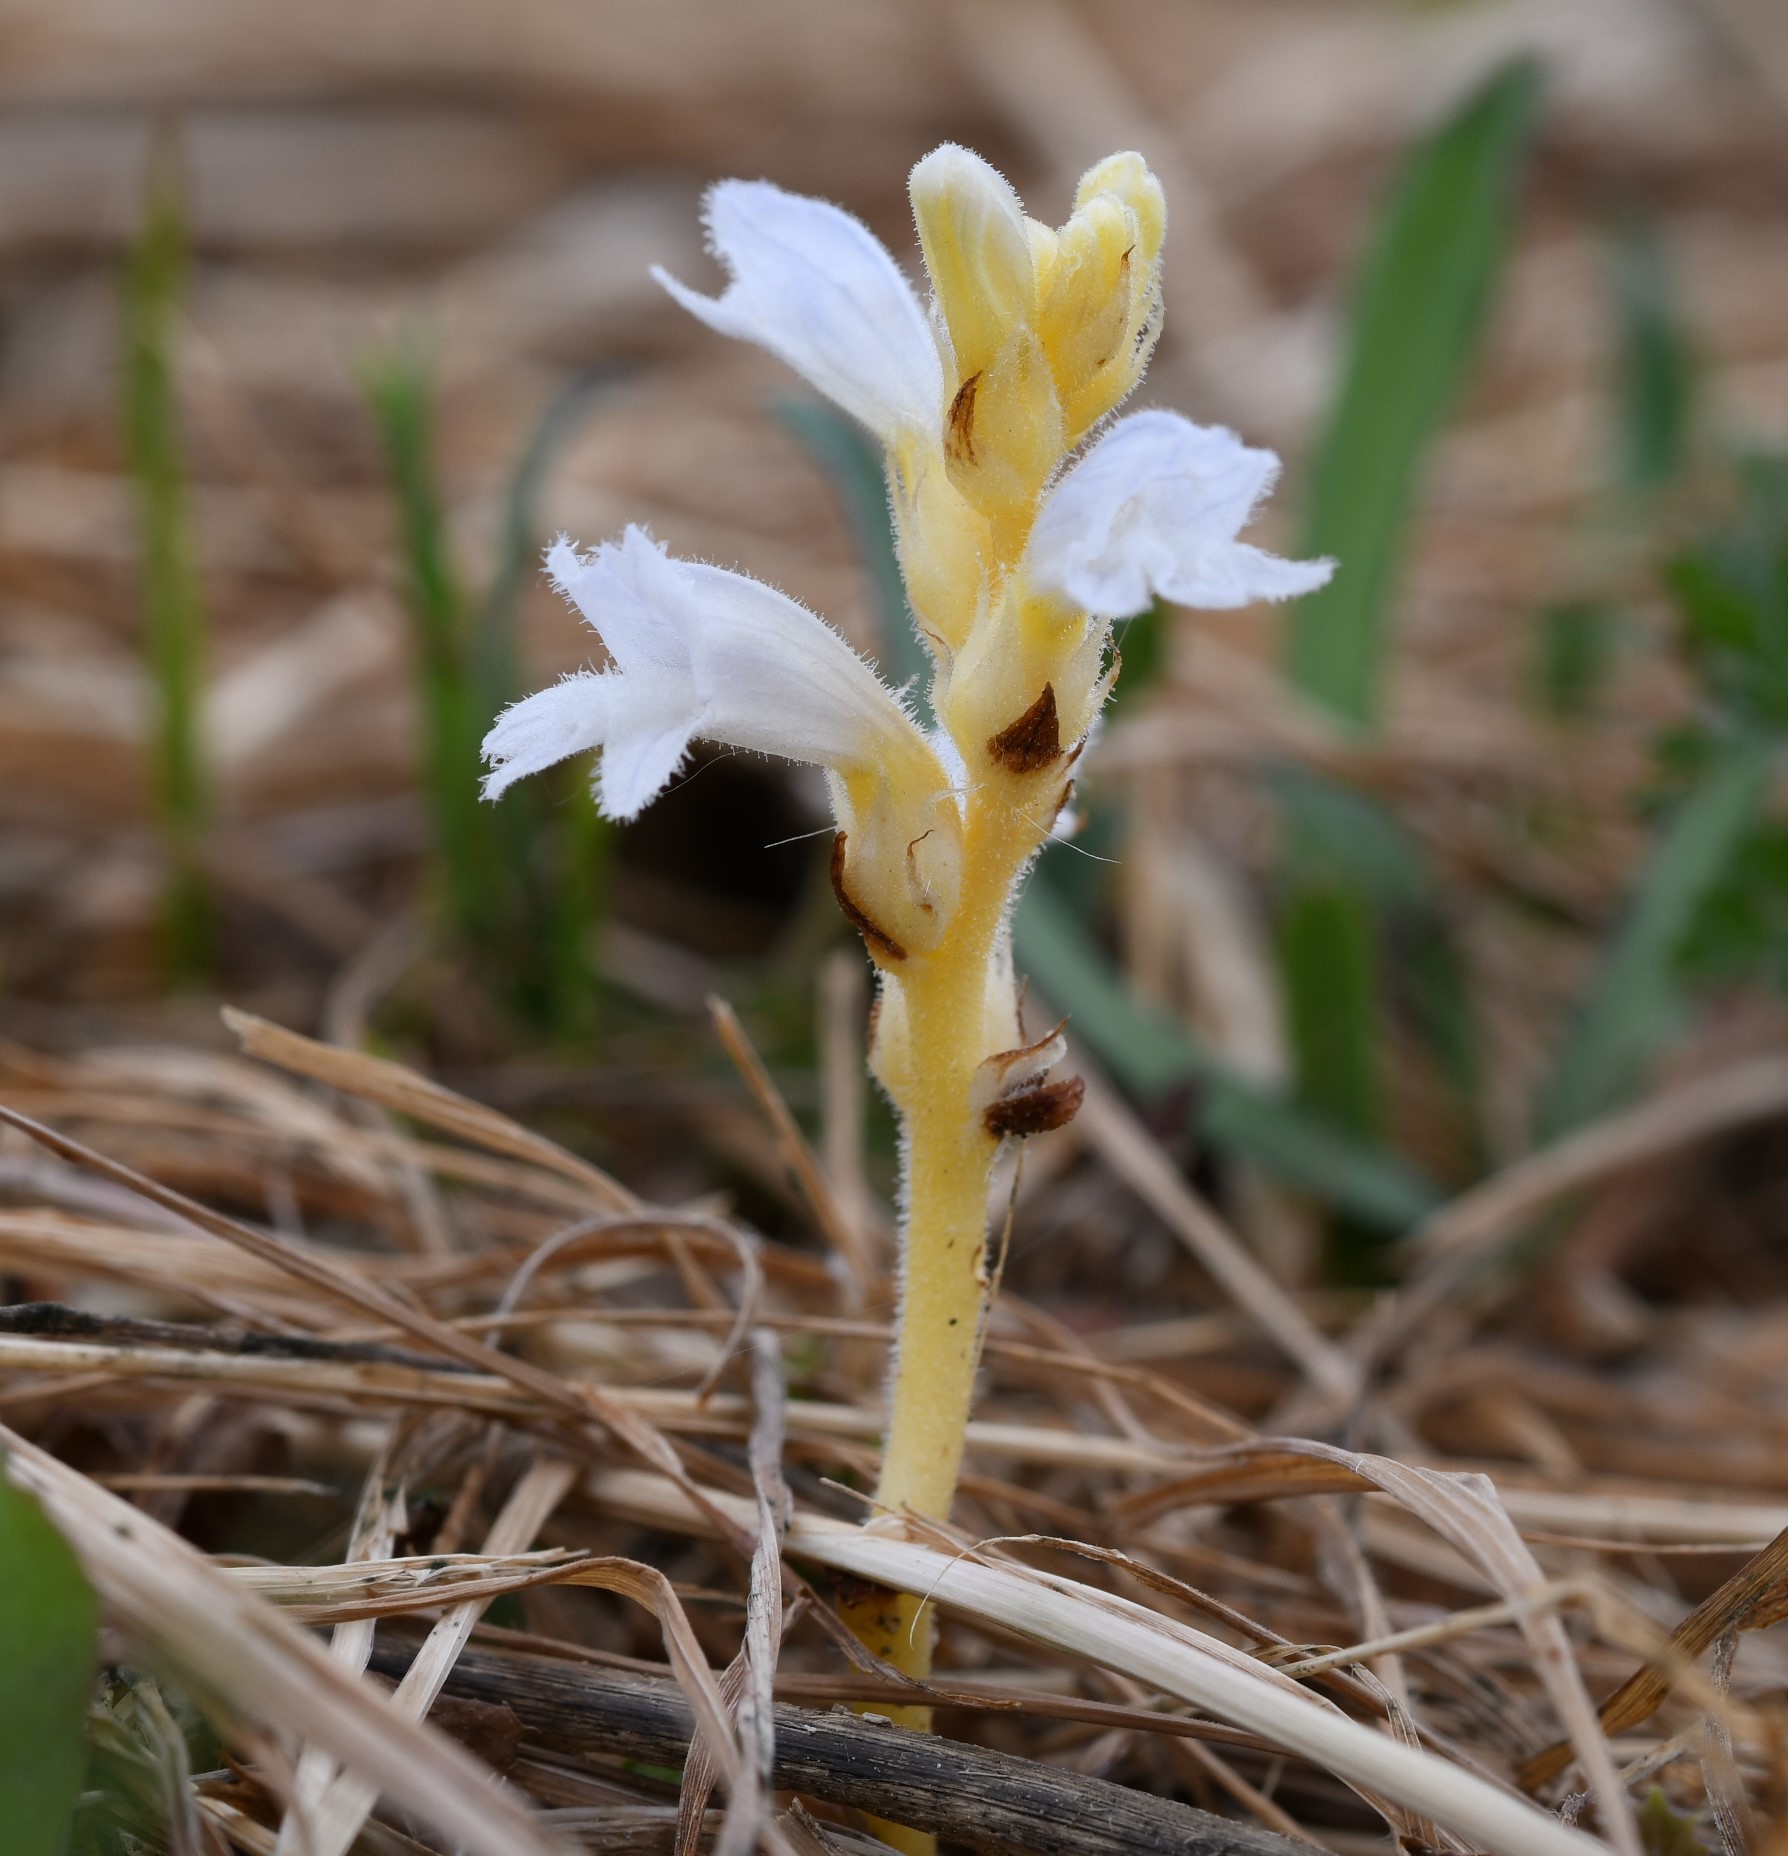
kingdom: Plantae
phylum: Tracheophyta
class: Magnoliopsida
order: Lamiales
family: Orobanchaceae
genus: Phelipanche
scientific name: Phelipanche mutelii
